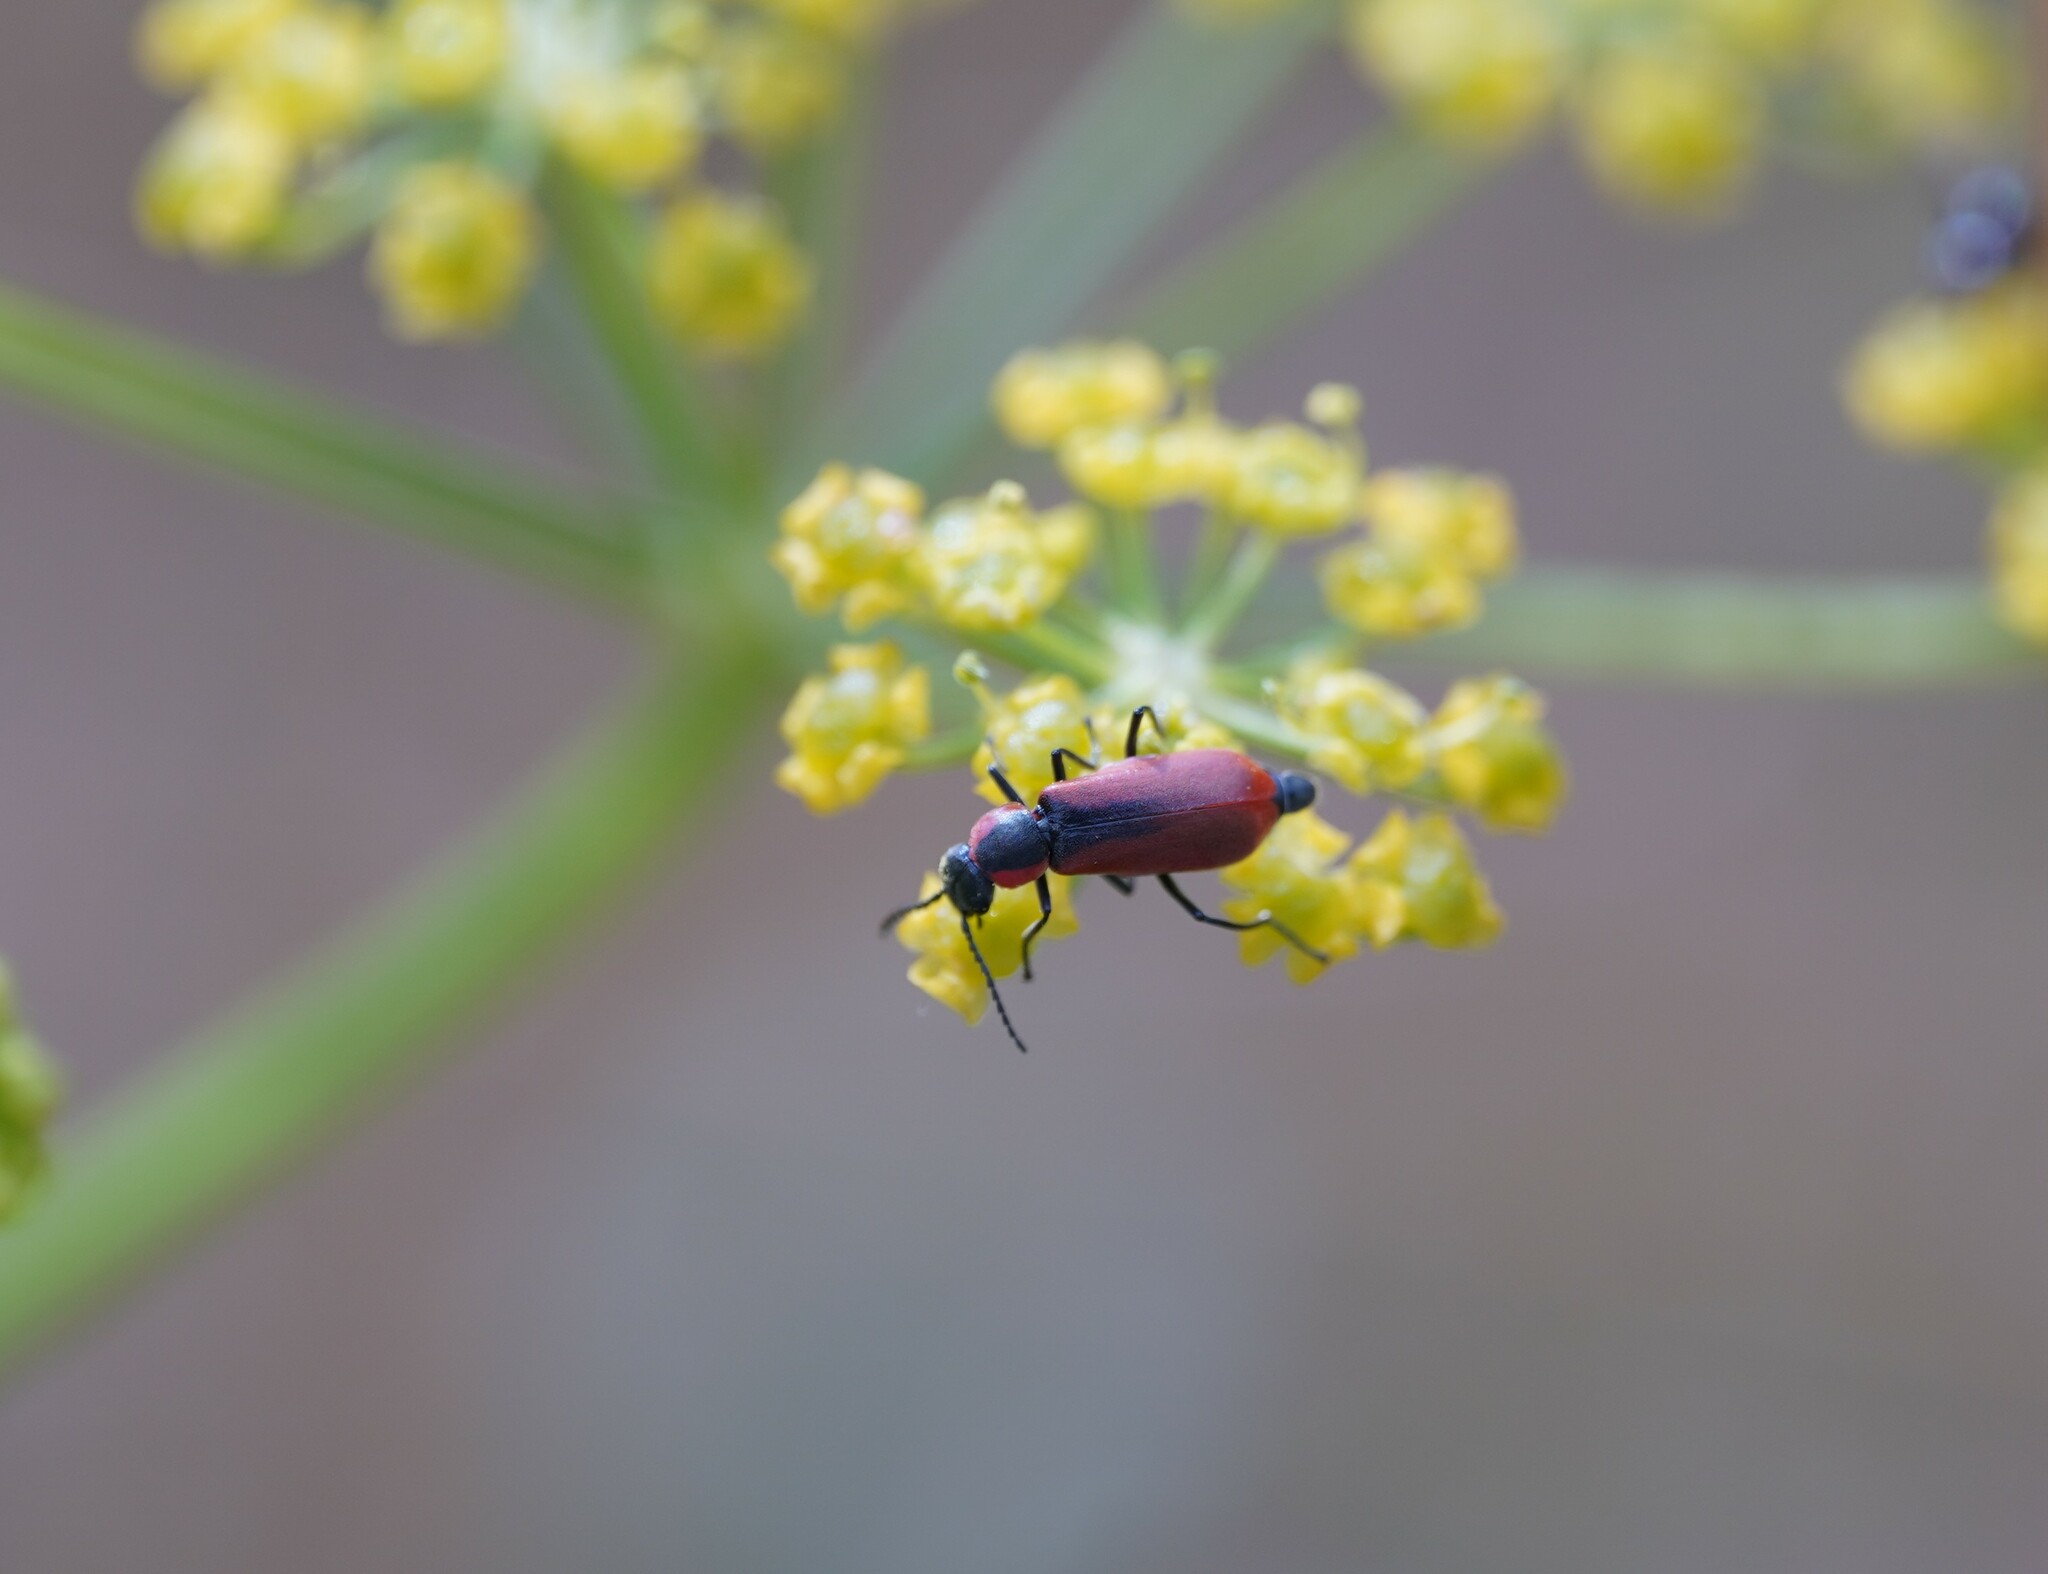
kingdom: Animalia
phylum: Arthropoda
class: Insecta
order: Coleoptera
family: Melyridae
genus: Anthocomus
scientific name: Anthocomus rufus
